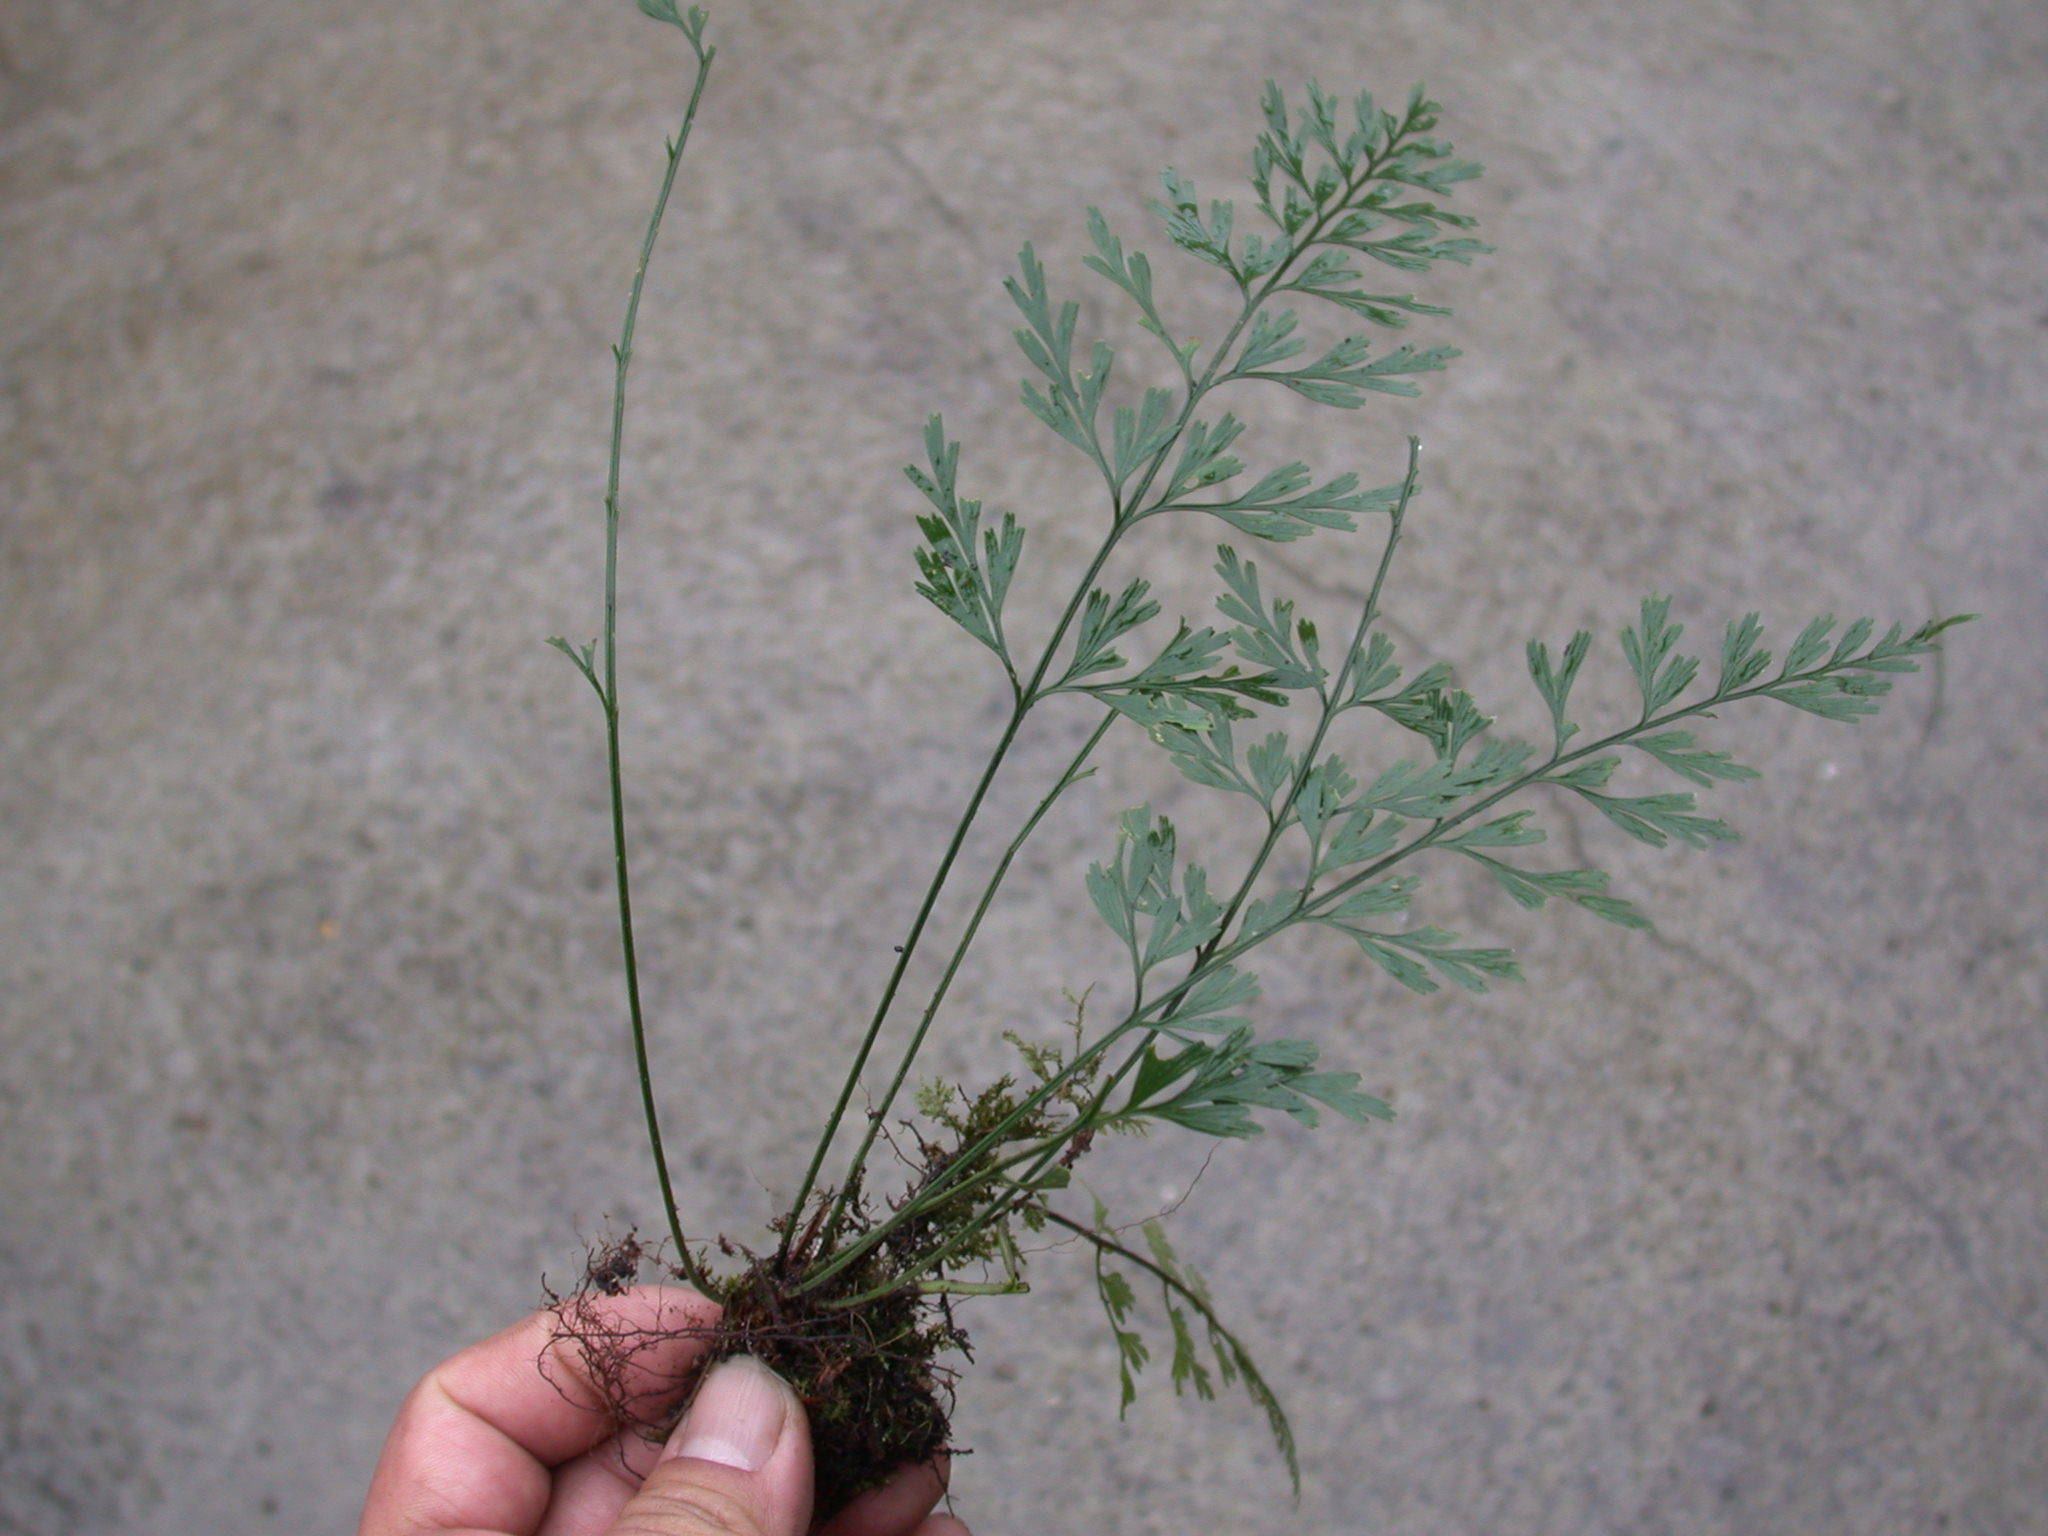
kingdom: Plantae
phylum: Tracheophyta
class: Polypodiopsida
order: Polypodiales
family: Lindsaeaceae
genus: Odontosoria
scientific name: Odontosoria chinensis
